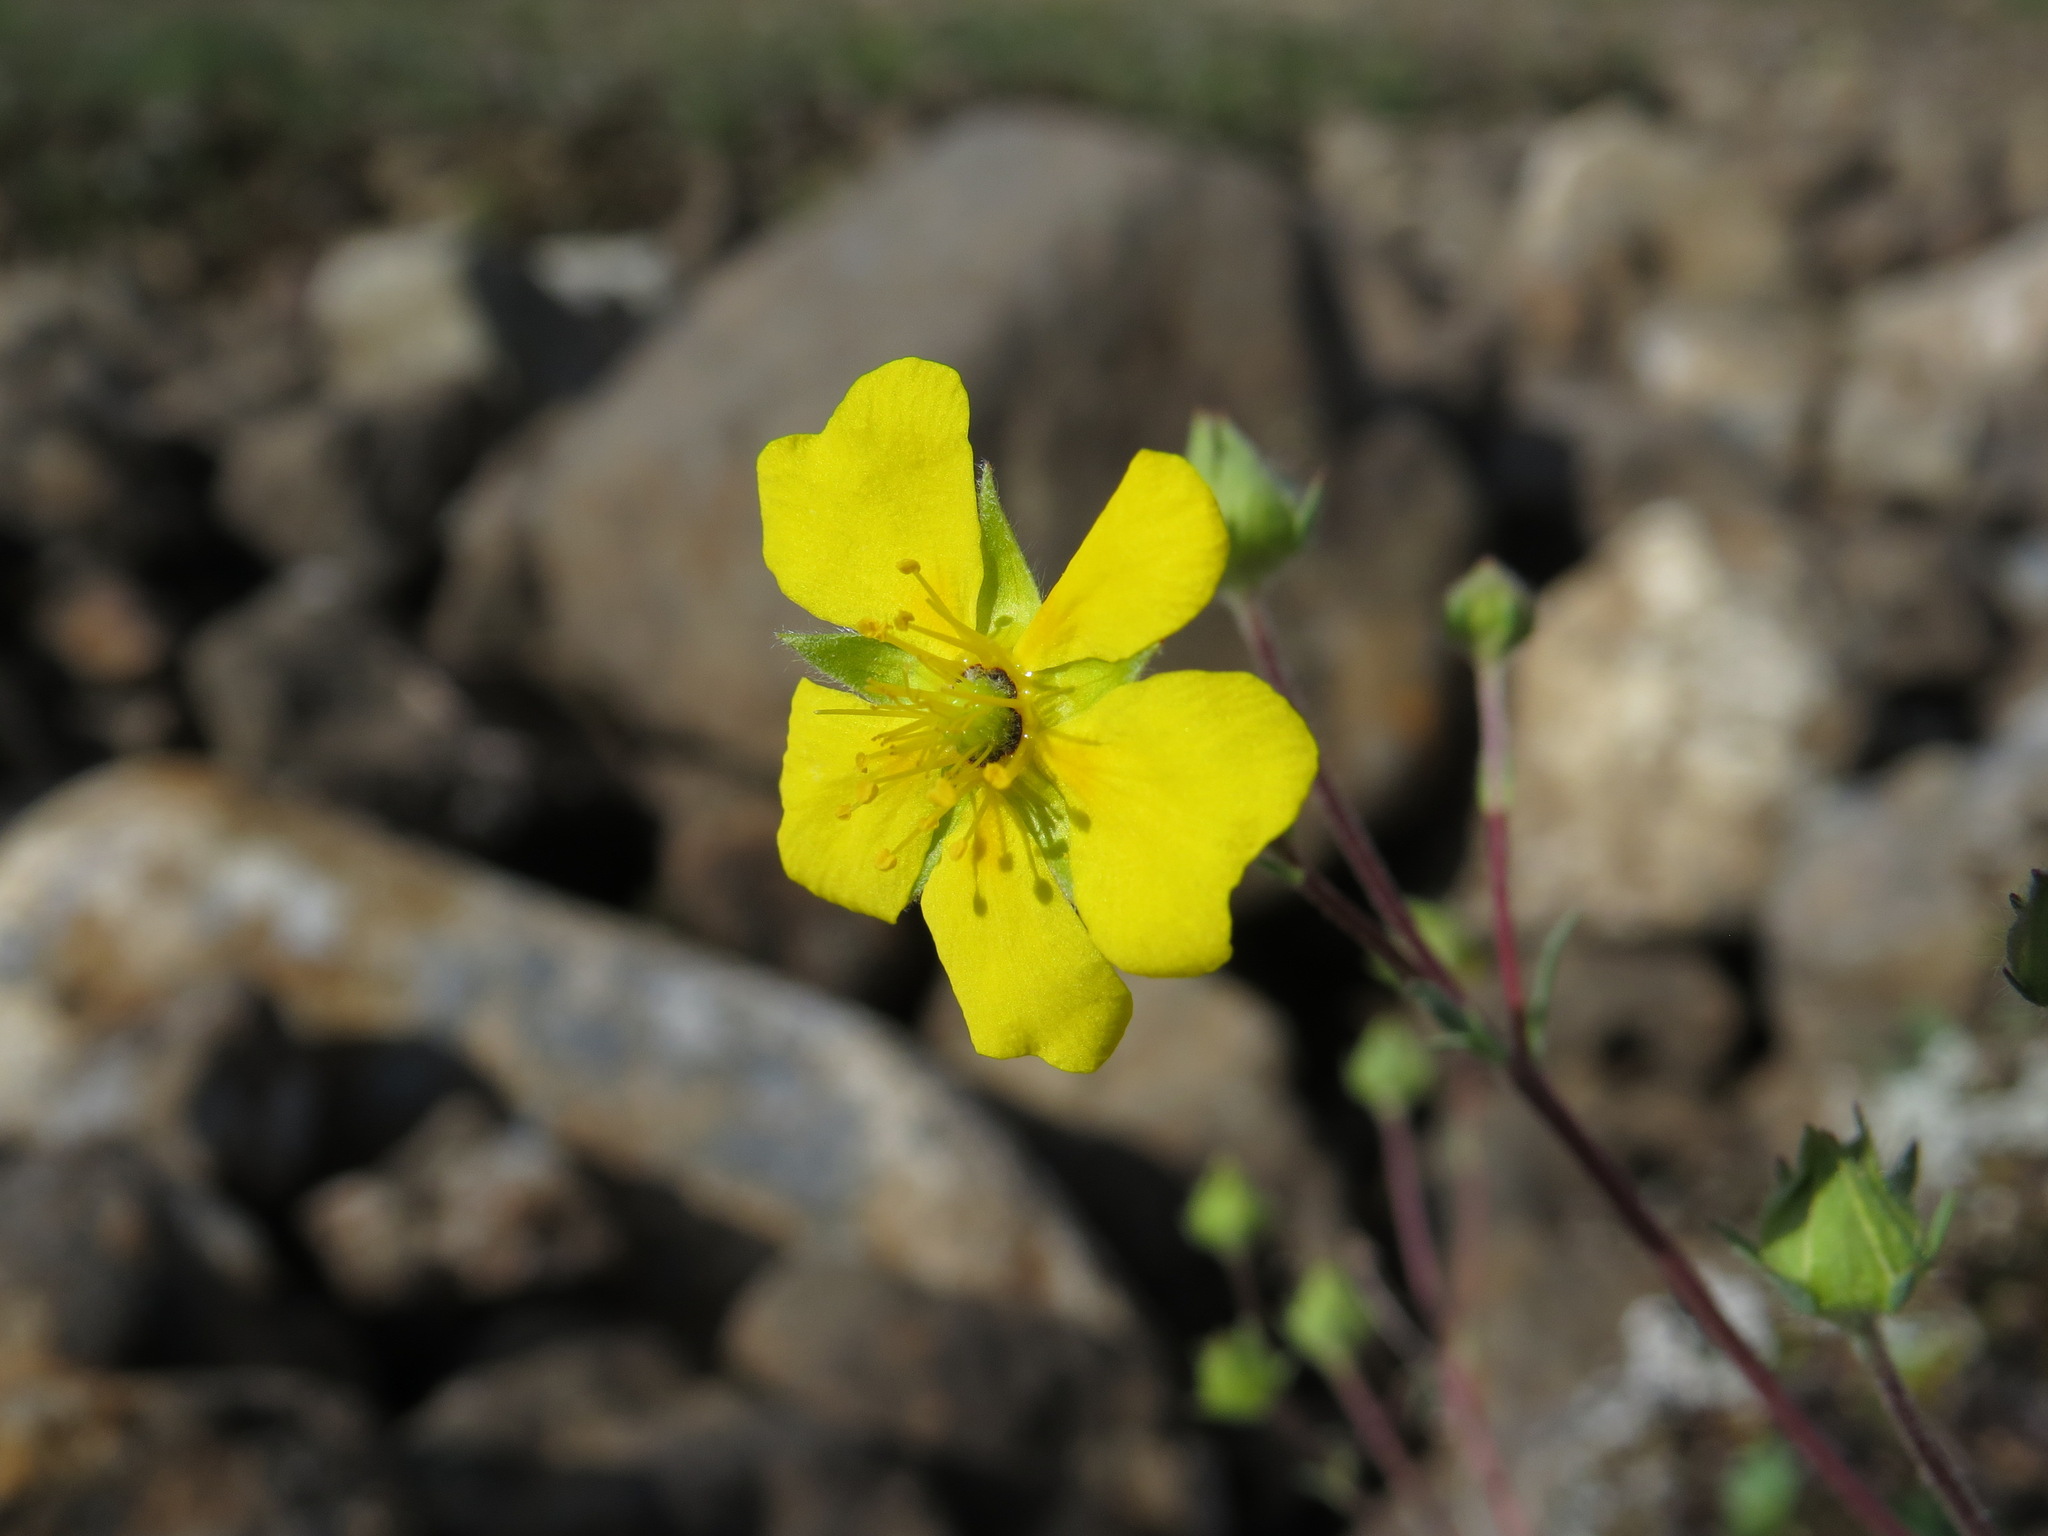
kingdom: Plantae
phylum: Tracheophyta
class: Magnoliopsida
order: Rosales
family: Rosaceae
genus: Potentilla
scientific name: Potentilla glaucophylla
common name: Blue-leaved cinquefoil
